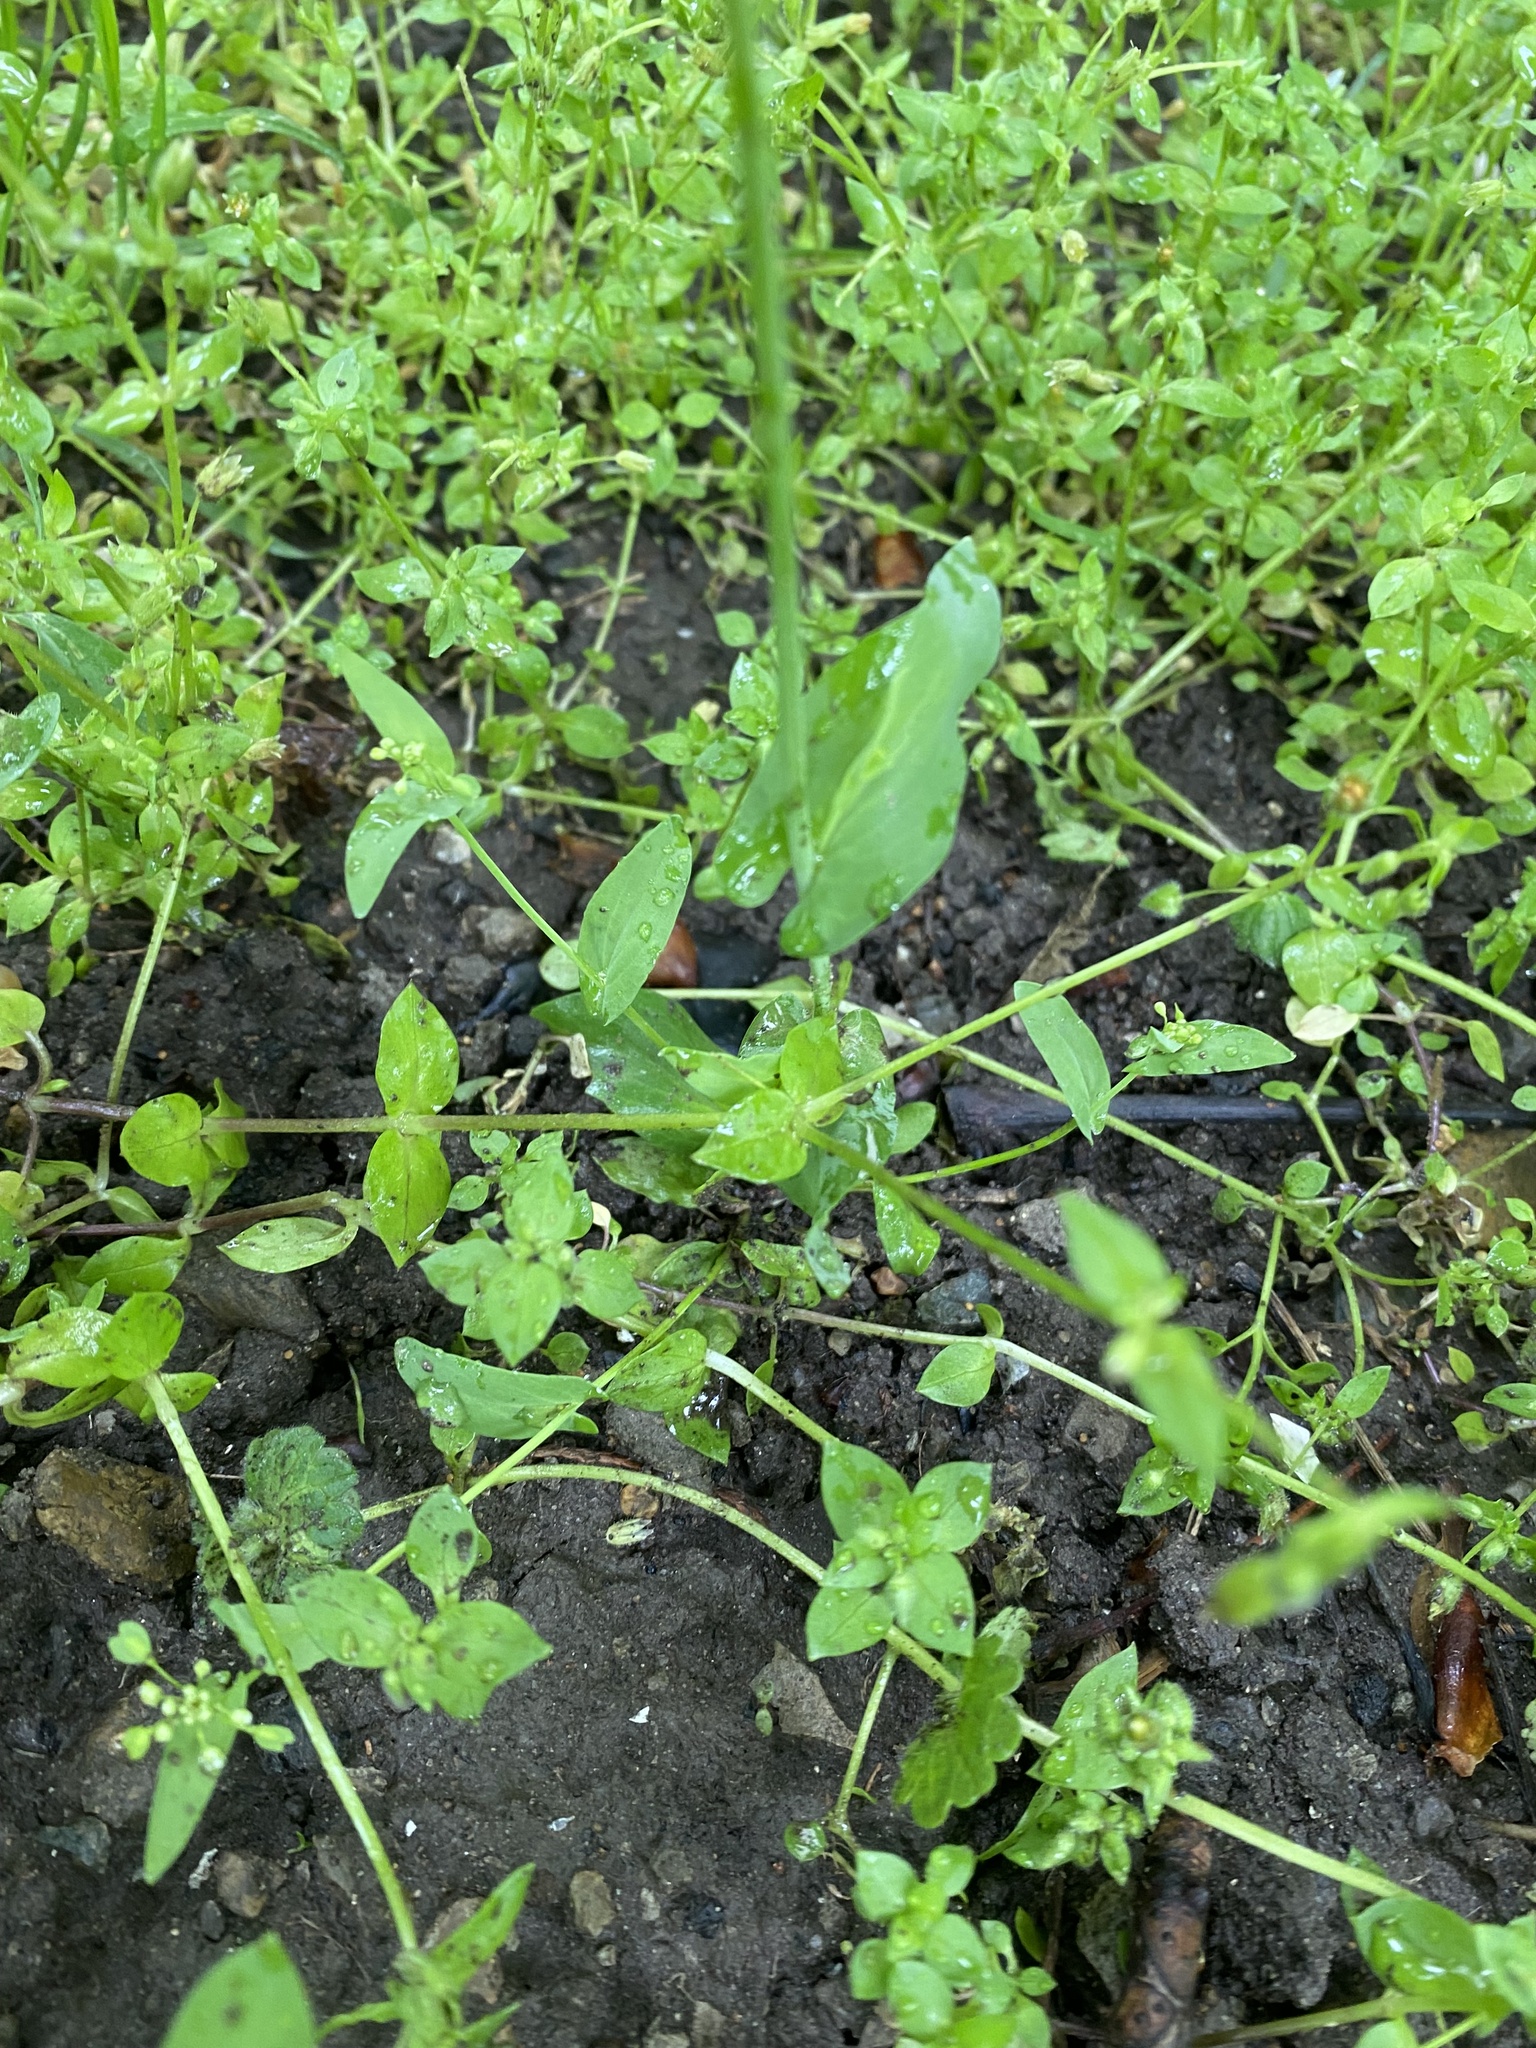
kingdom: Plantae
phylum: Tracheophyta
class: Magnoliopsida
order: Brassicales
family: Brassicaceae
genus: Noccaea
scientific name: Noccaea perfoliata
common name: Perfoliate pennycress
